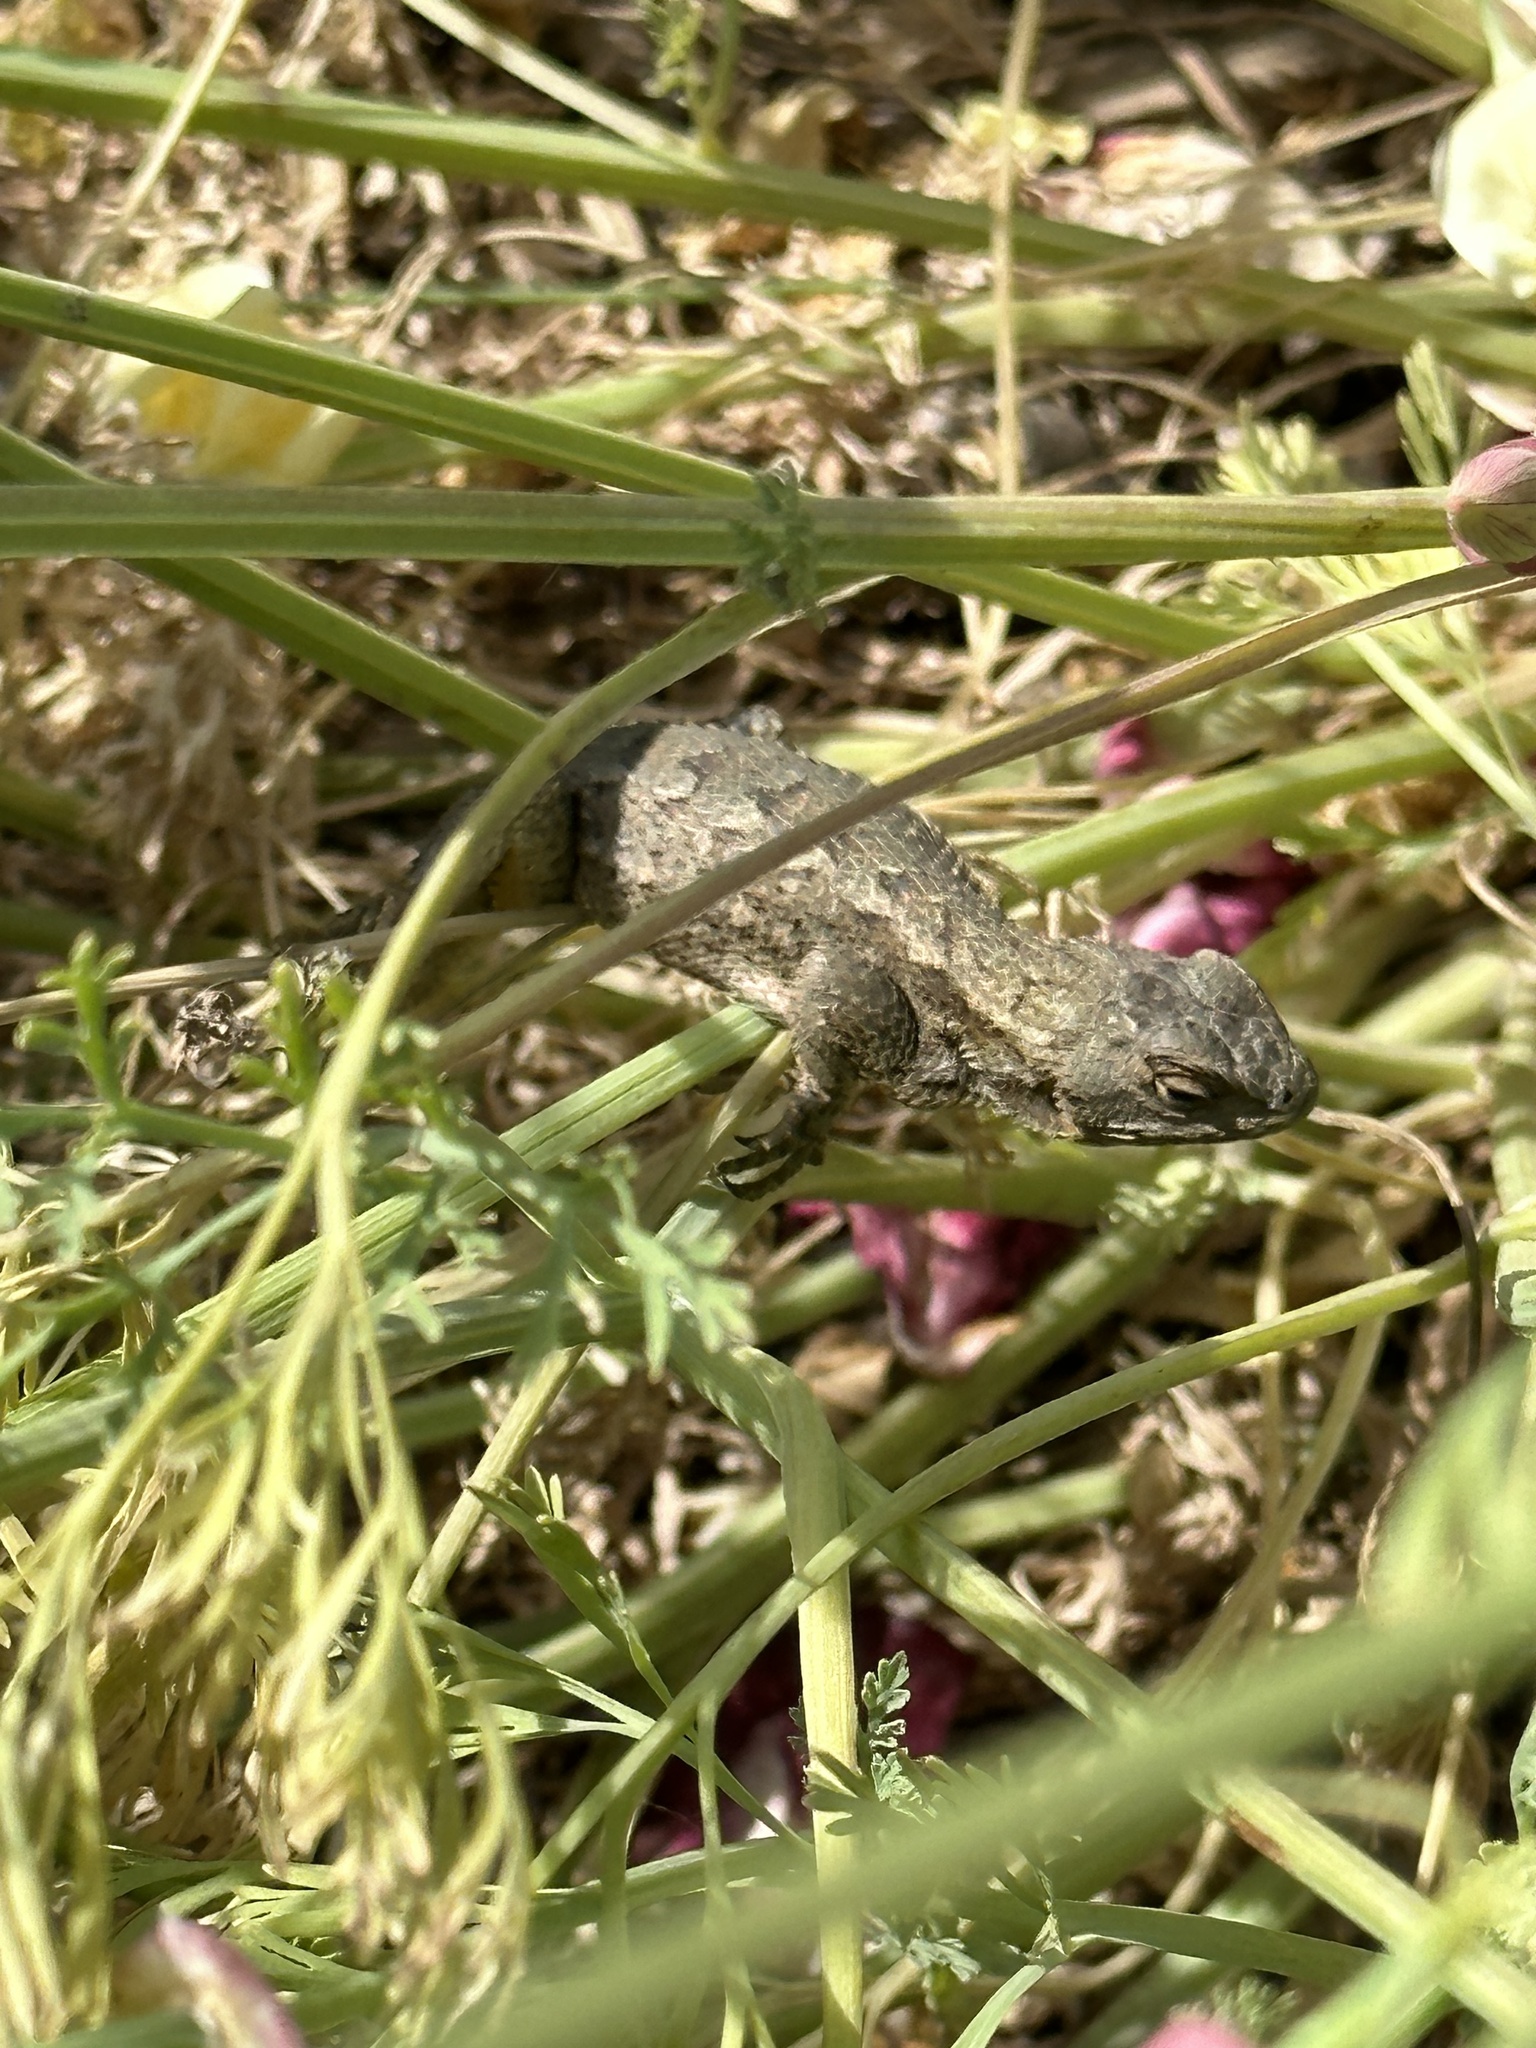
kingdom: Animalia
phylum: Chordata
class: Squamata
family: Phrynosomatidae
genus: Sceloporus
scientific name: Sceloporus occidentalis
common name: Western fence lizard
